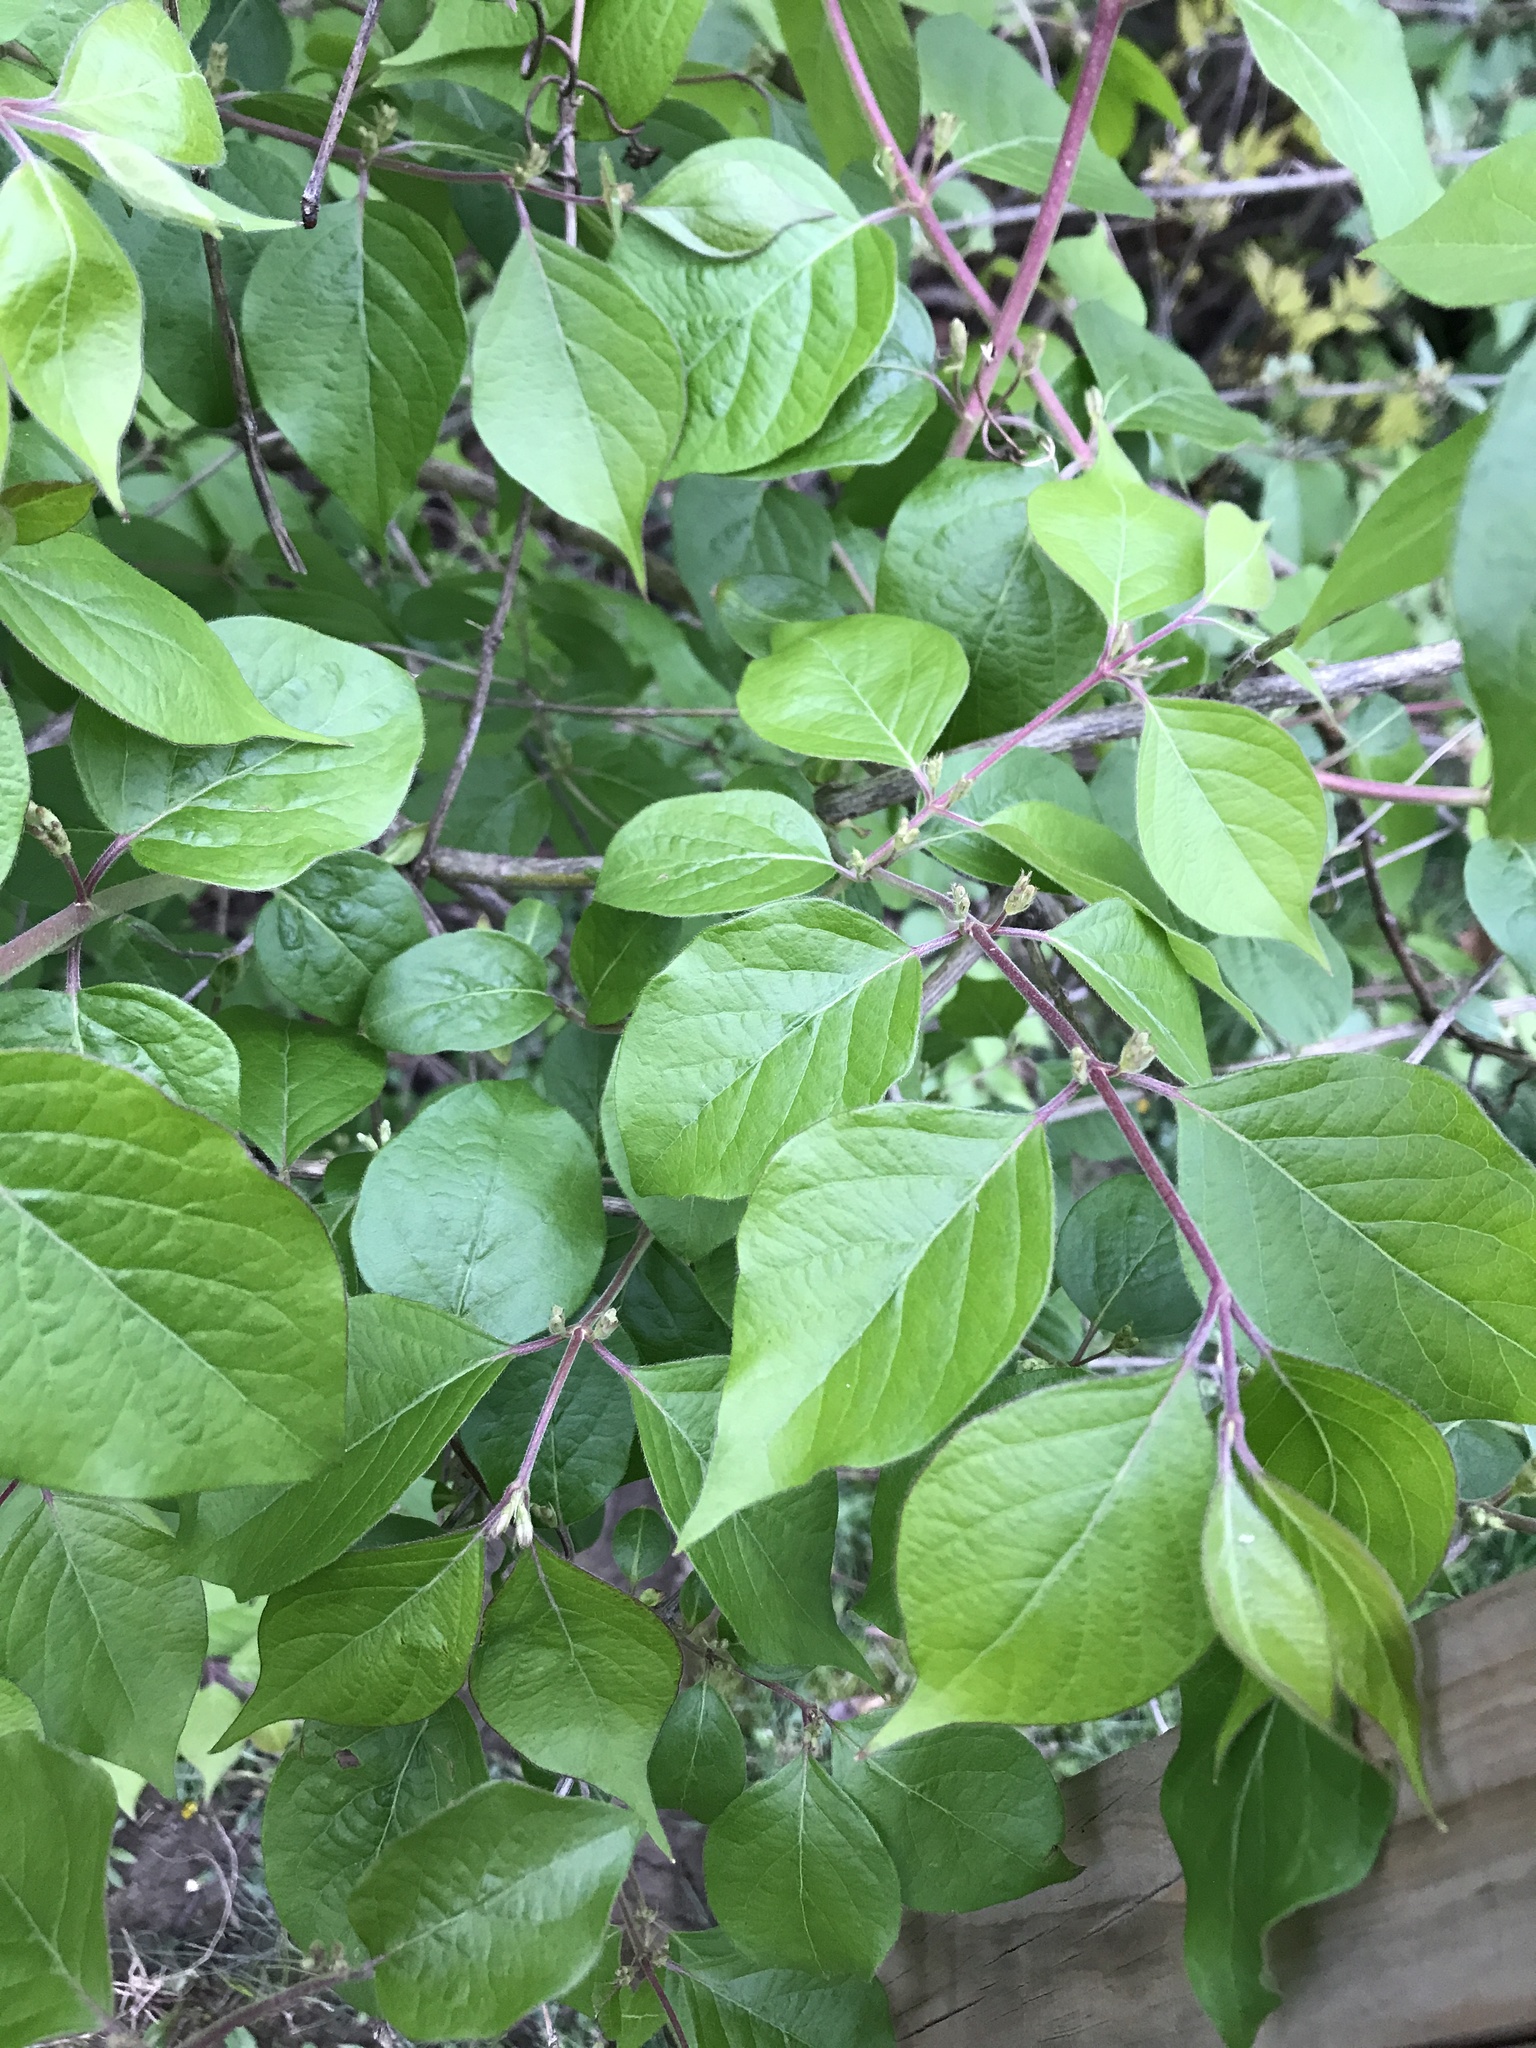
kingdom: Plantae
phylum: Tracheophyta
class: Magnoliopsida
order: Dipsacales
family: Caprifoliaceae
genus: Lonicera
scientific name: Lonicera maackii
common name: Amur honeysuckle
